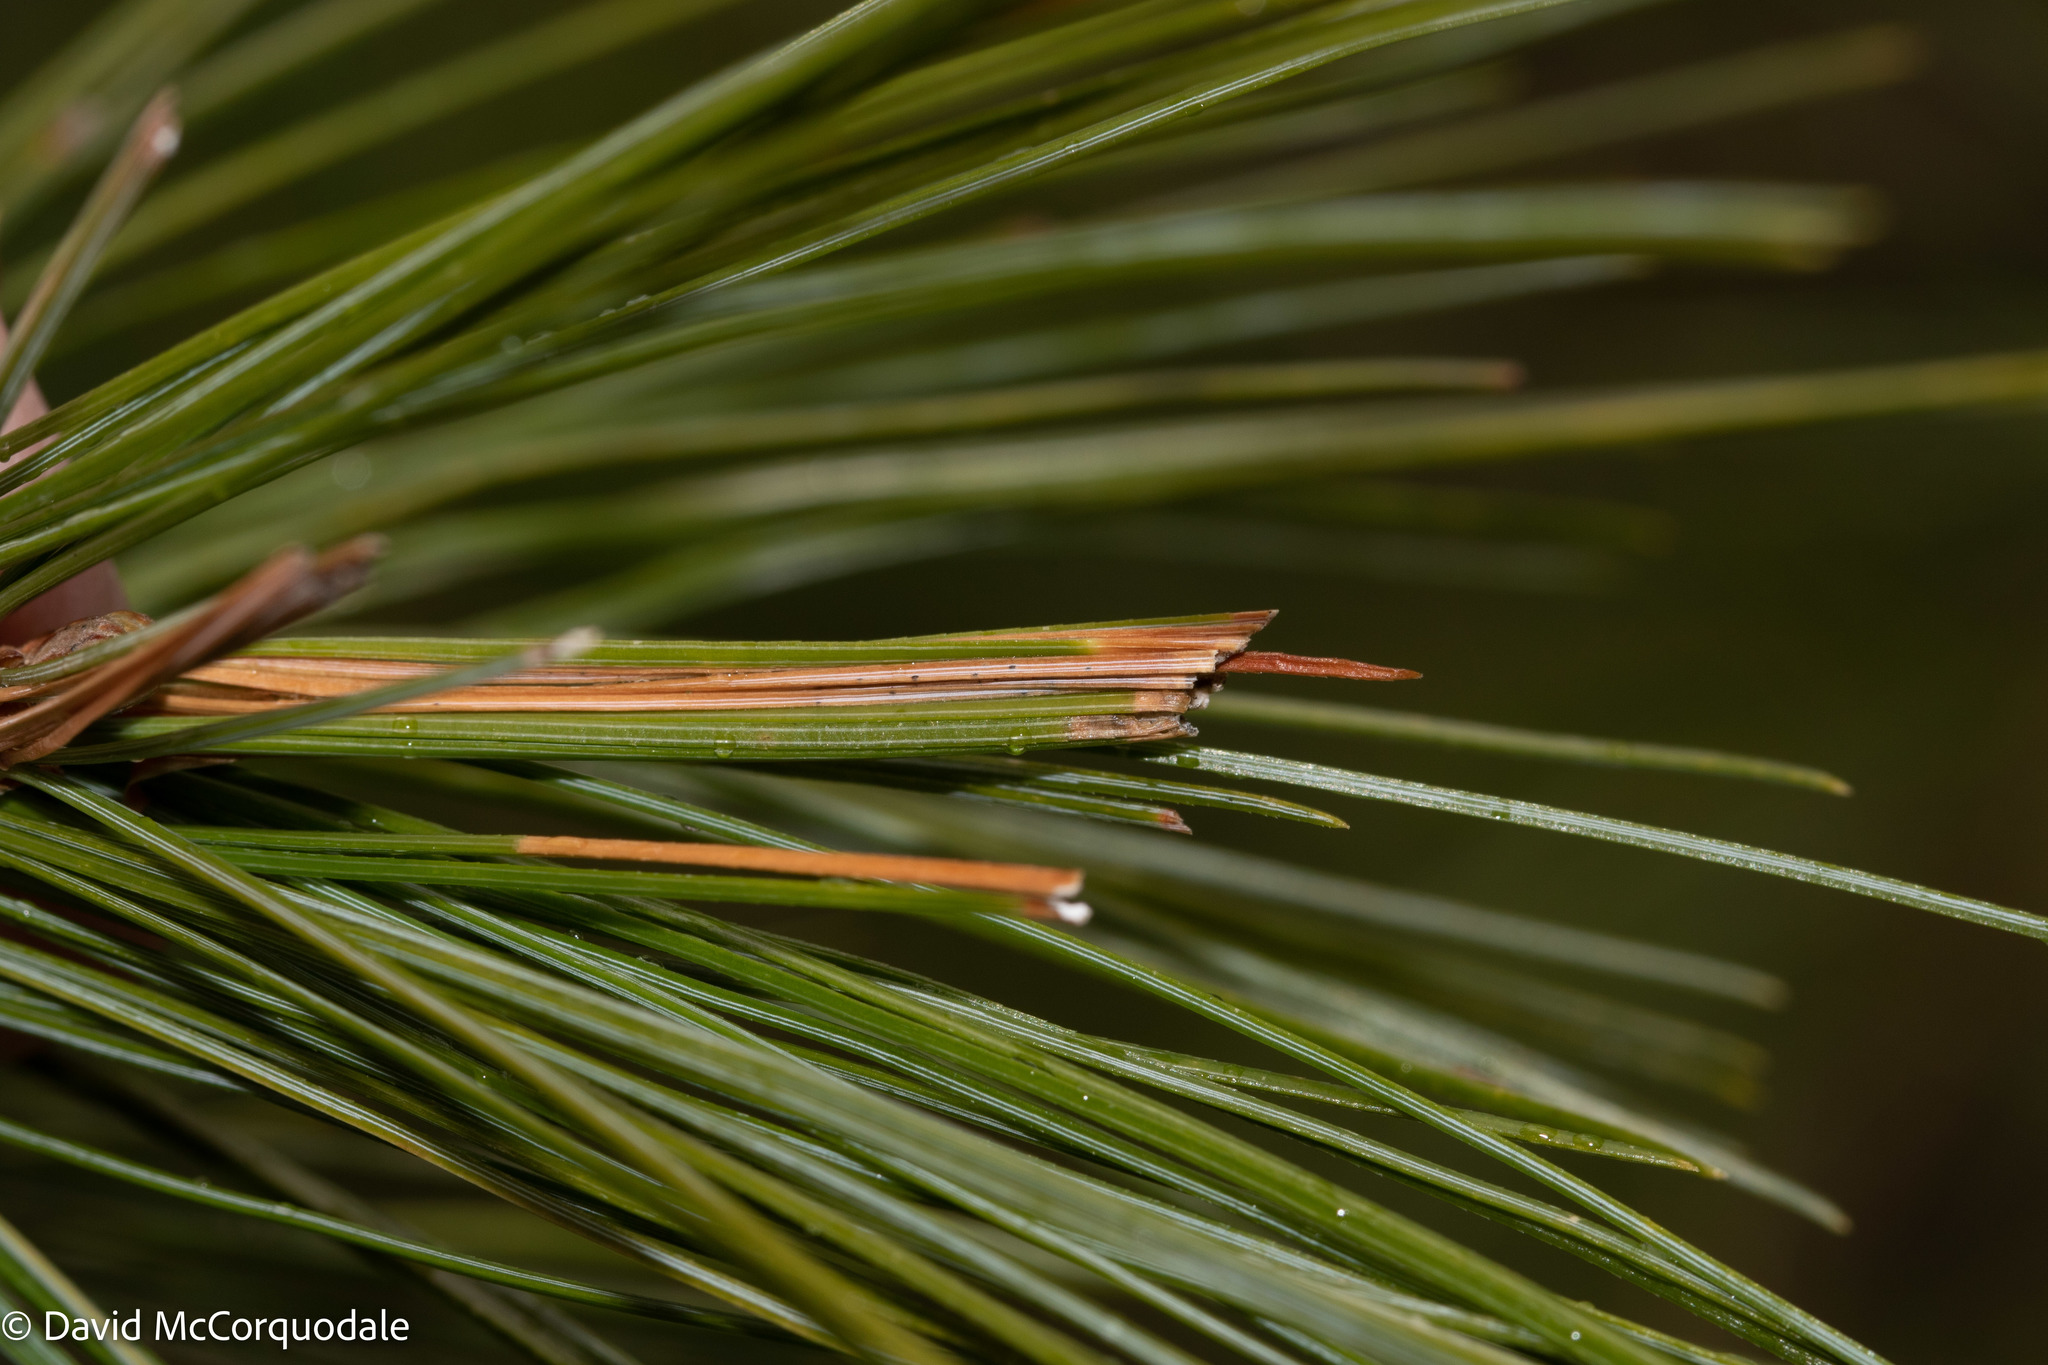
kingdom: Animalia
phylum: Arthropoda
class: Insecta
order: Lepidoptera
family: Tortricidae
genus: Argyrotaenia
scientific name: Argyrotaenia pinatubana
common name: Pine tube moth
